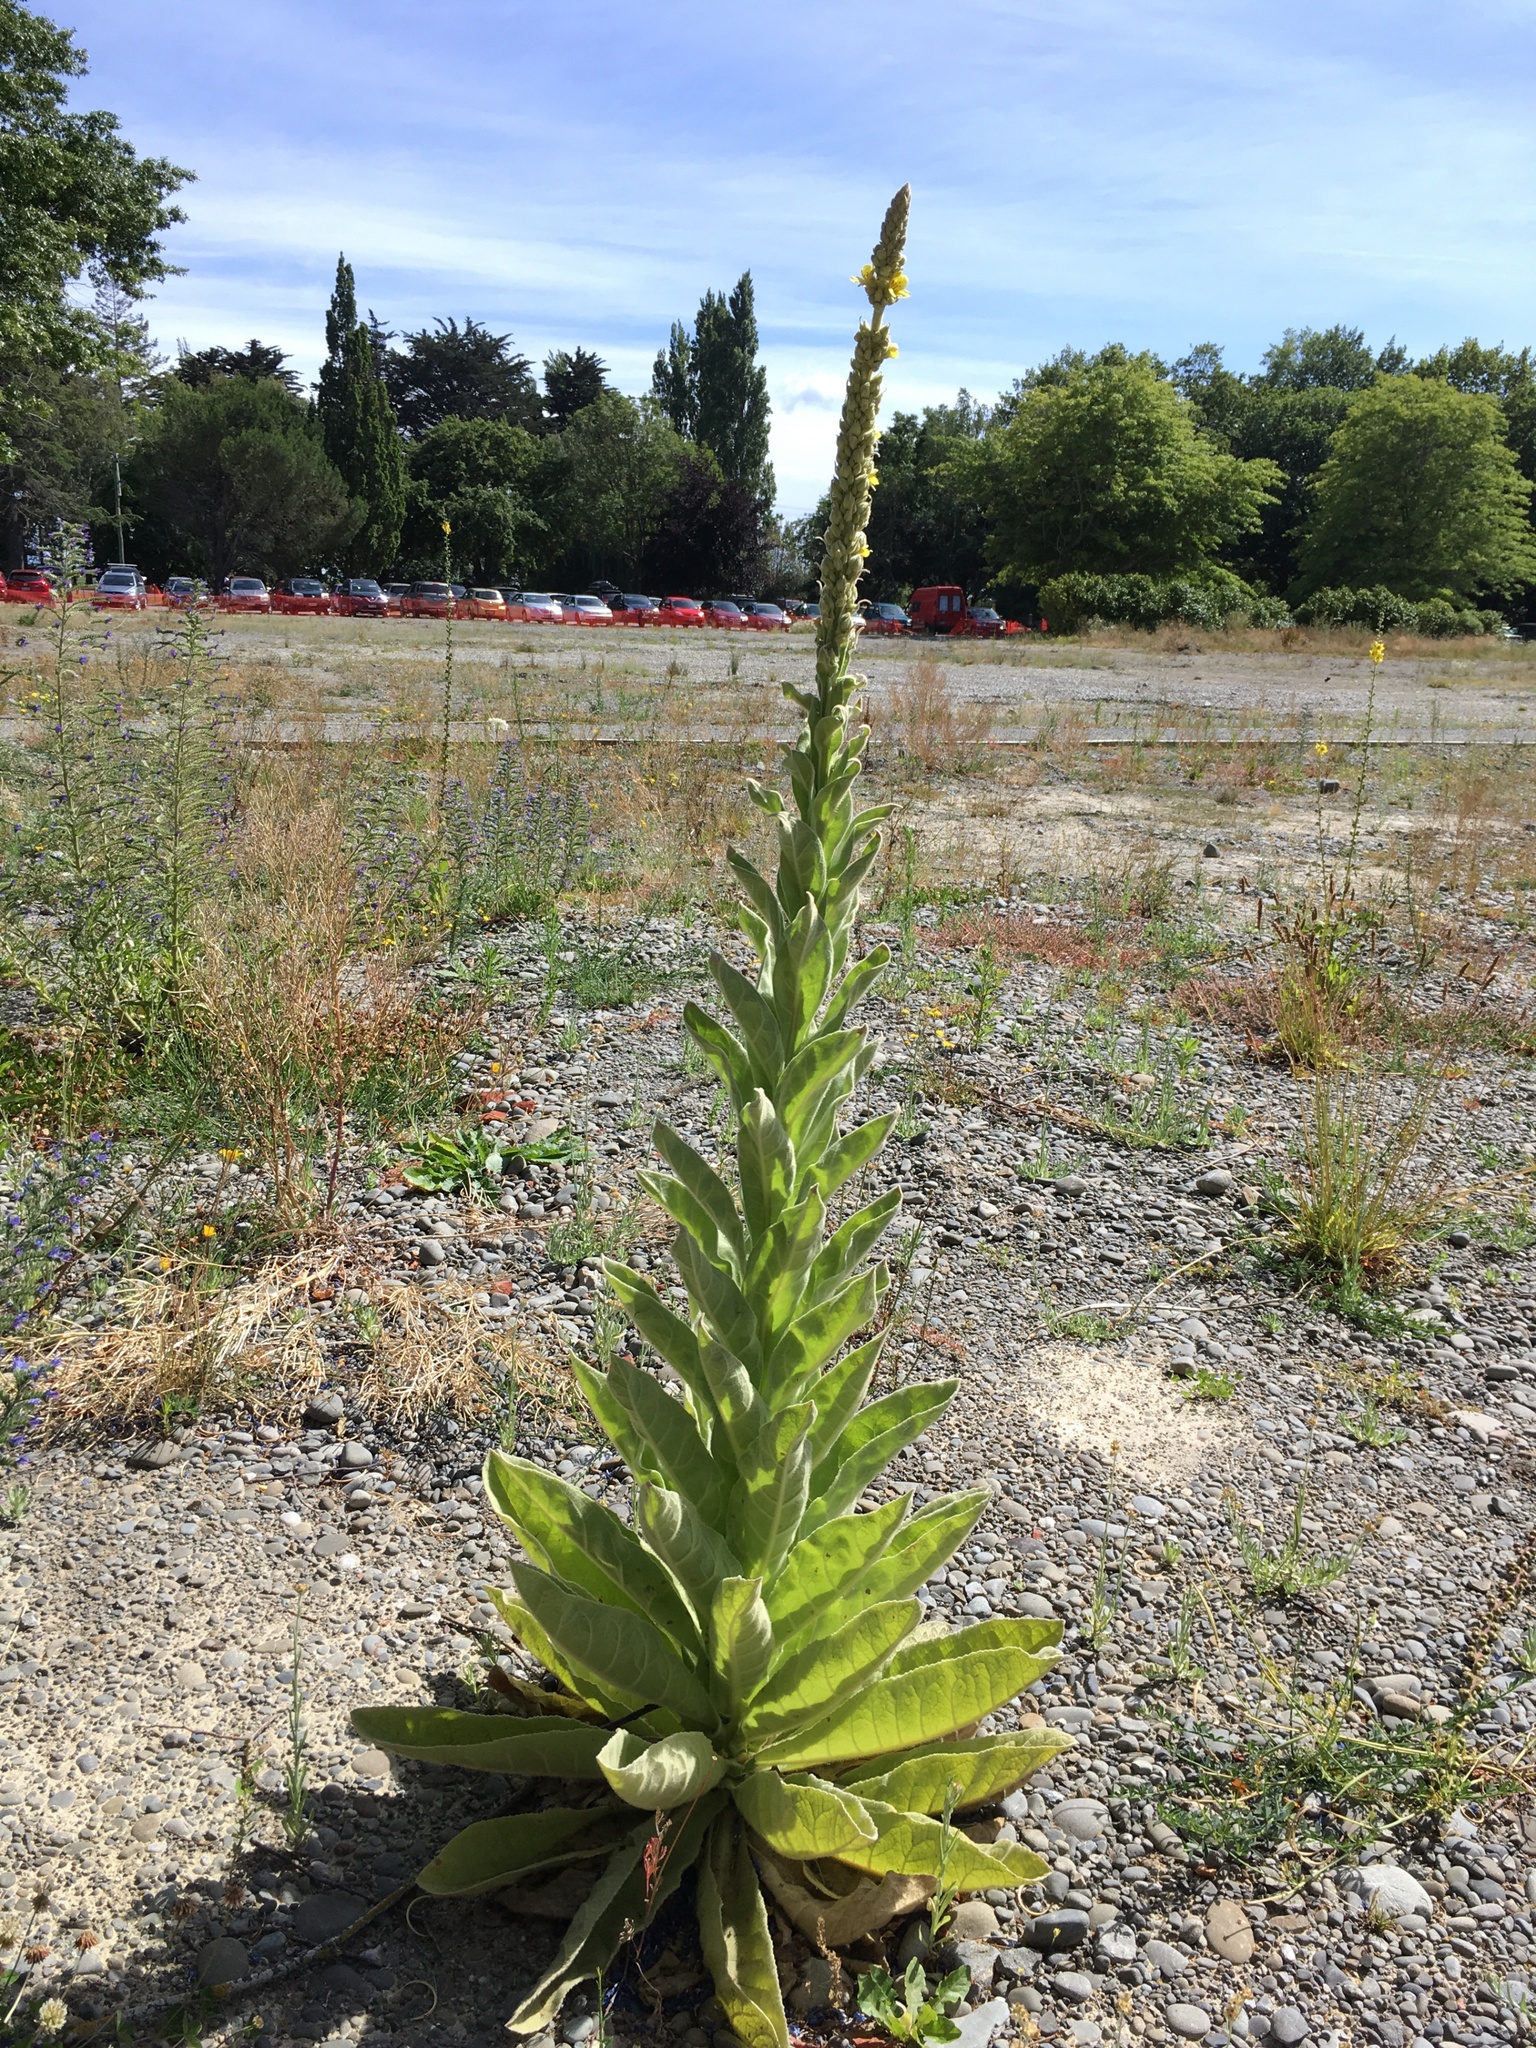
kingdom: Plantae
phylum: Tracheophyta
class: Magnoliopsida
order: Lamiales
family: Scrophulariaceae
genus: Verbascum
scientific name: Verbascum thapsus
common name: Common mullein
